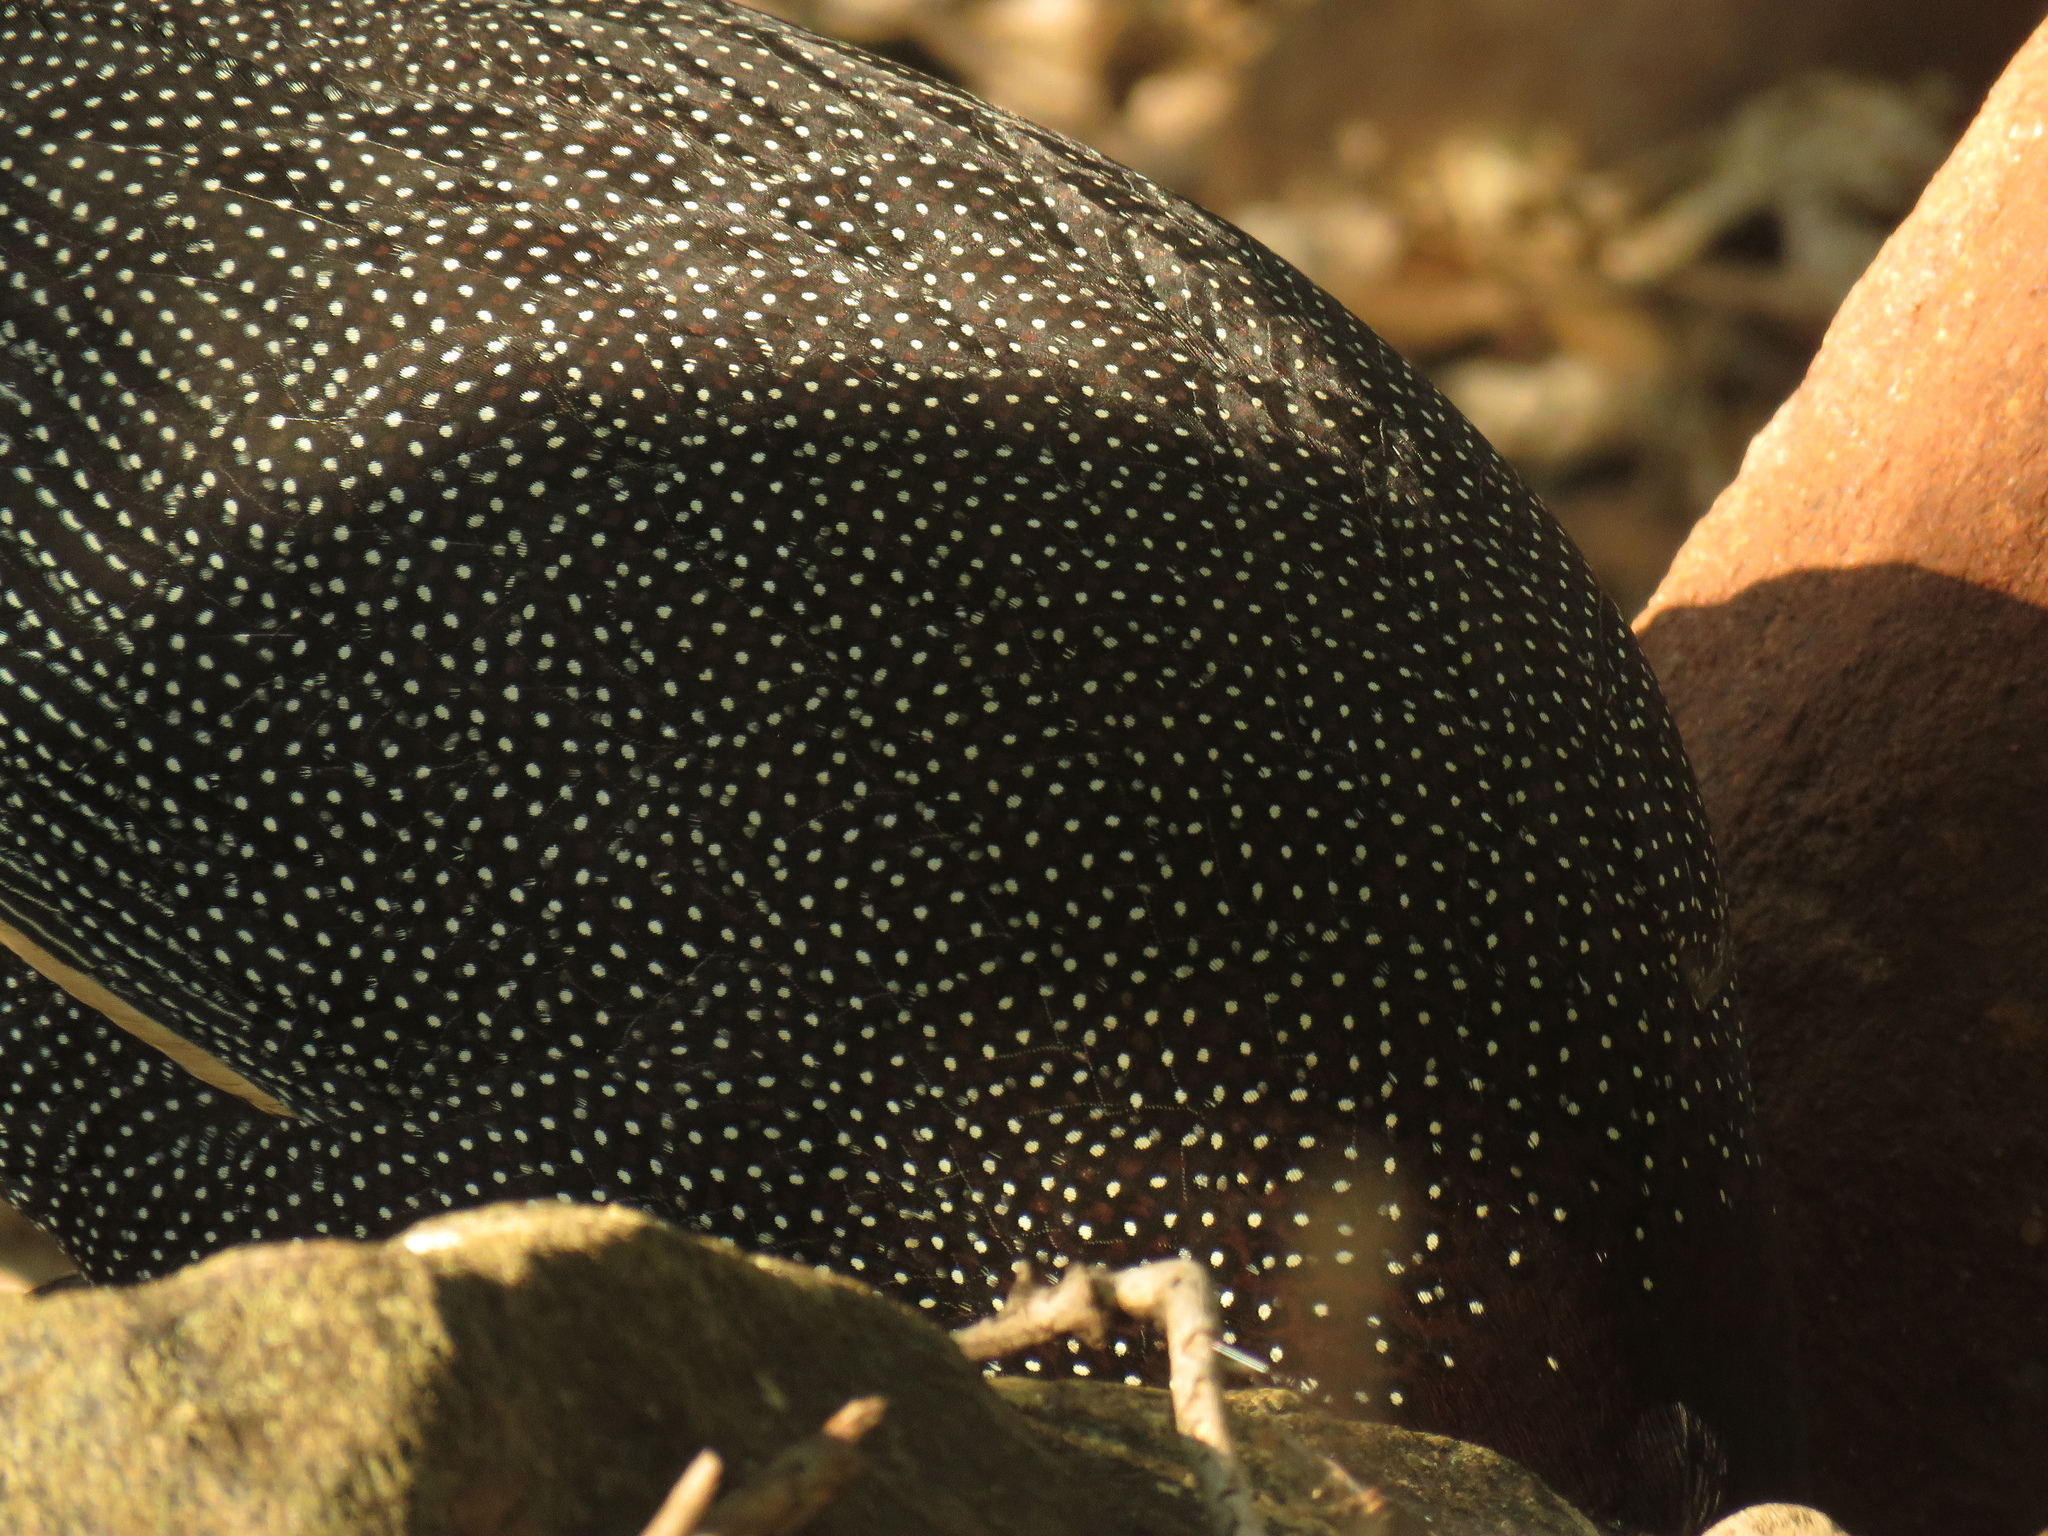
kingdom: Animalia
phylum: Chordata
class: Aves
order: Galliformes
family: Numididae
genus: Guttera
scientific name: Guttera pucherani
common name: Crested guineafowl
